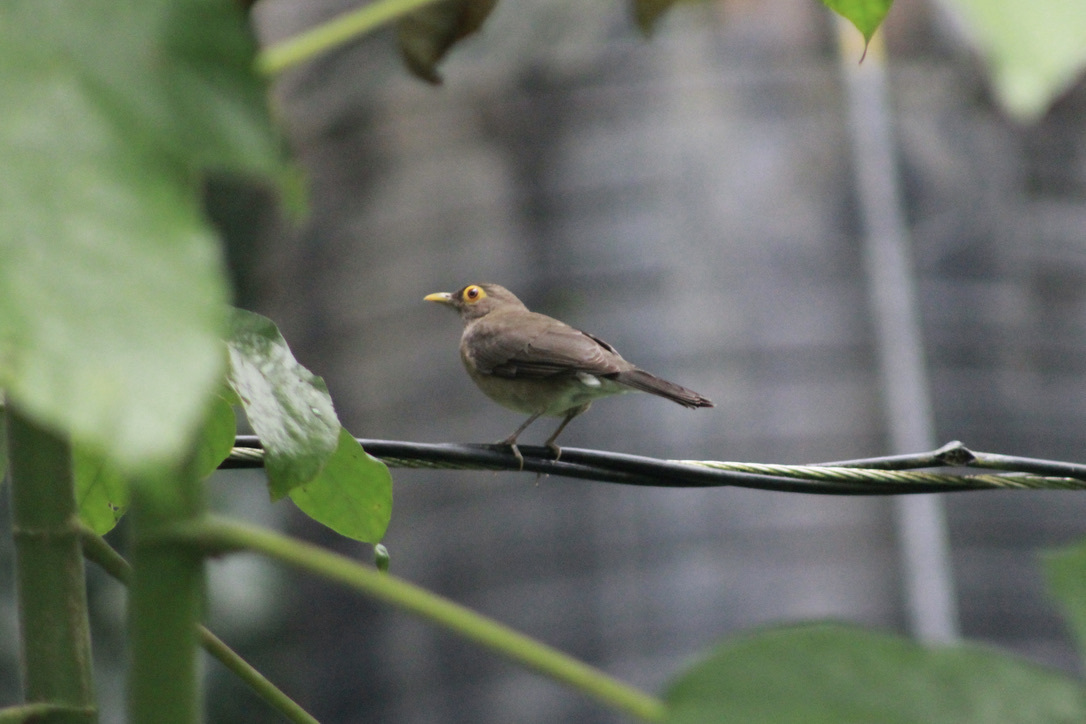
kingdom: Animalia
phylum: Chordata
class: Aves
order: Passeriformes
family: Turdidae
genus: Turdus
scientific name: Turdus nudigenis
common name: Spectacled thrush
